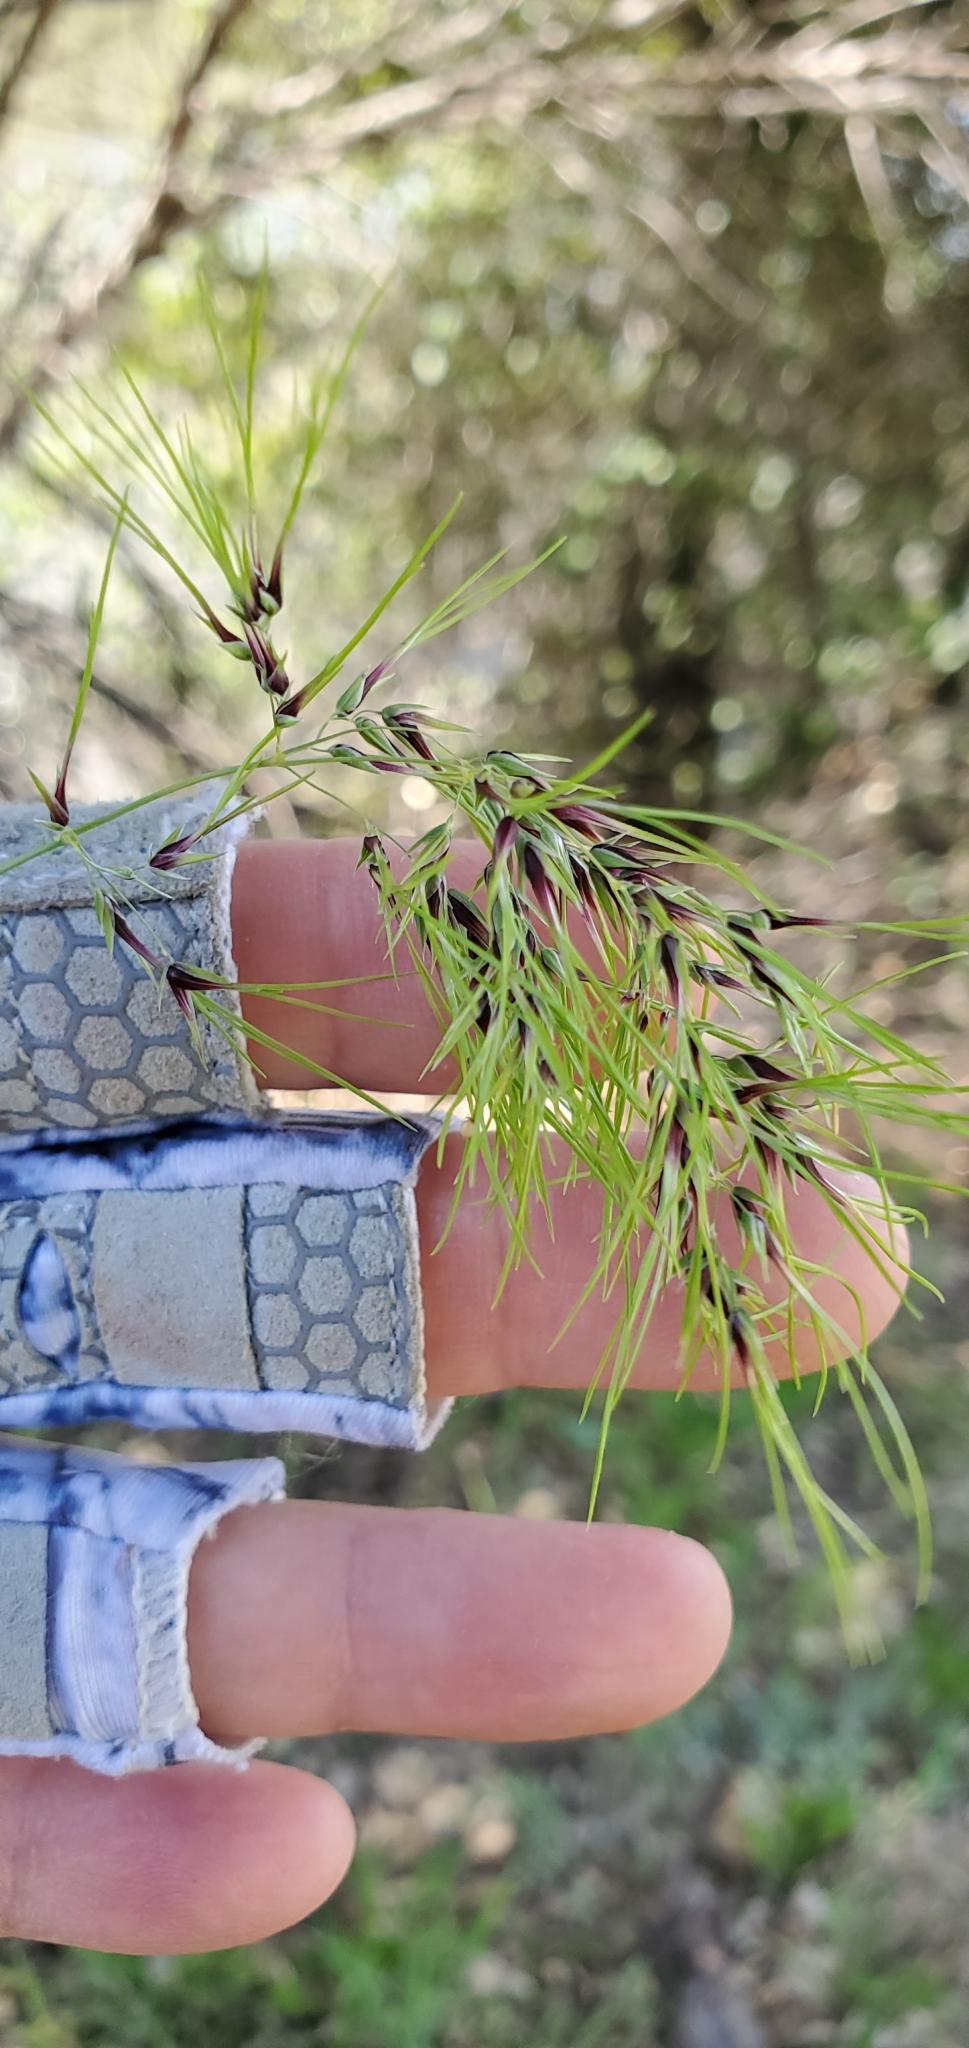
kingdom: Plantae
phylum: Tracheophyta
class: Liliopsida
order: Poales
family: Poaceae
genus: Poa
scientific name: Poa bulbosa
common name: Bulbous bluegrass
